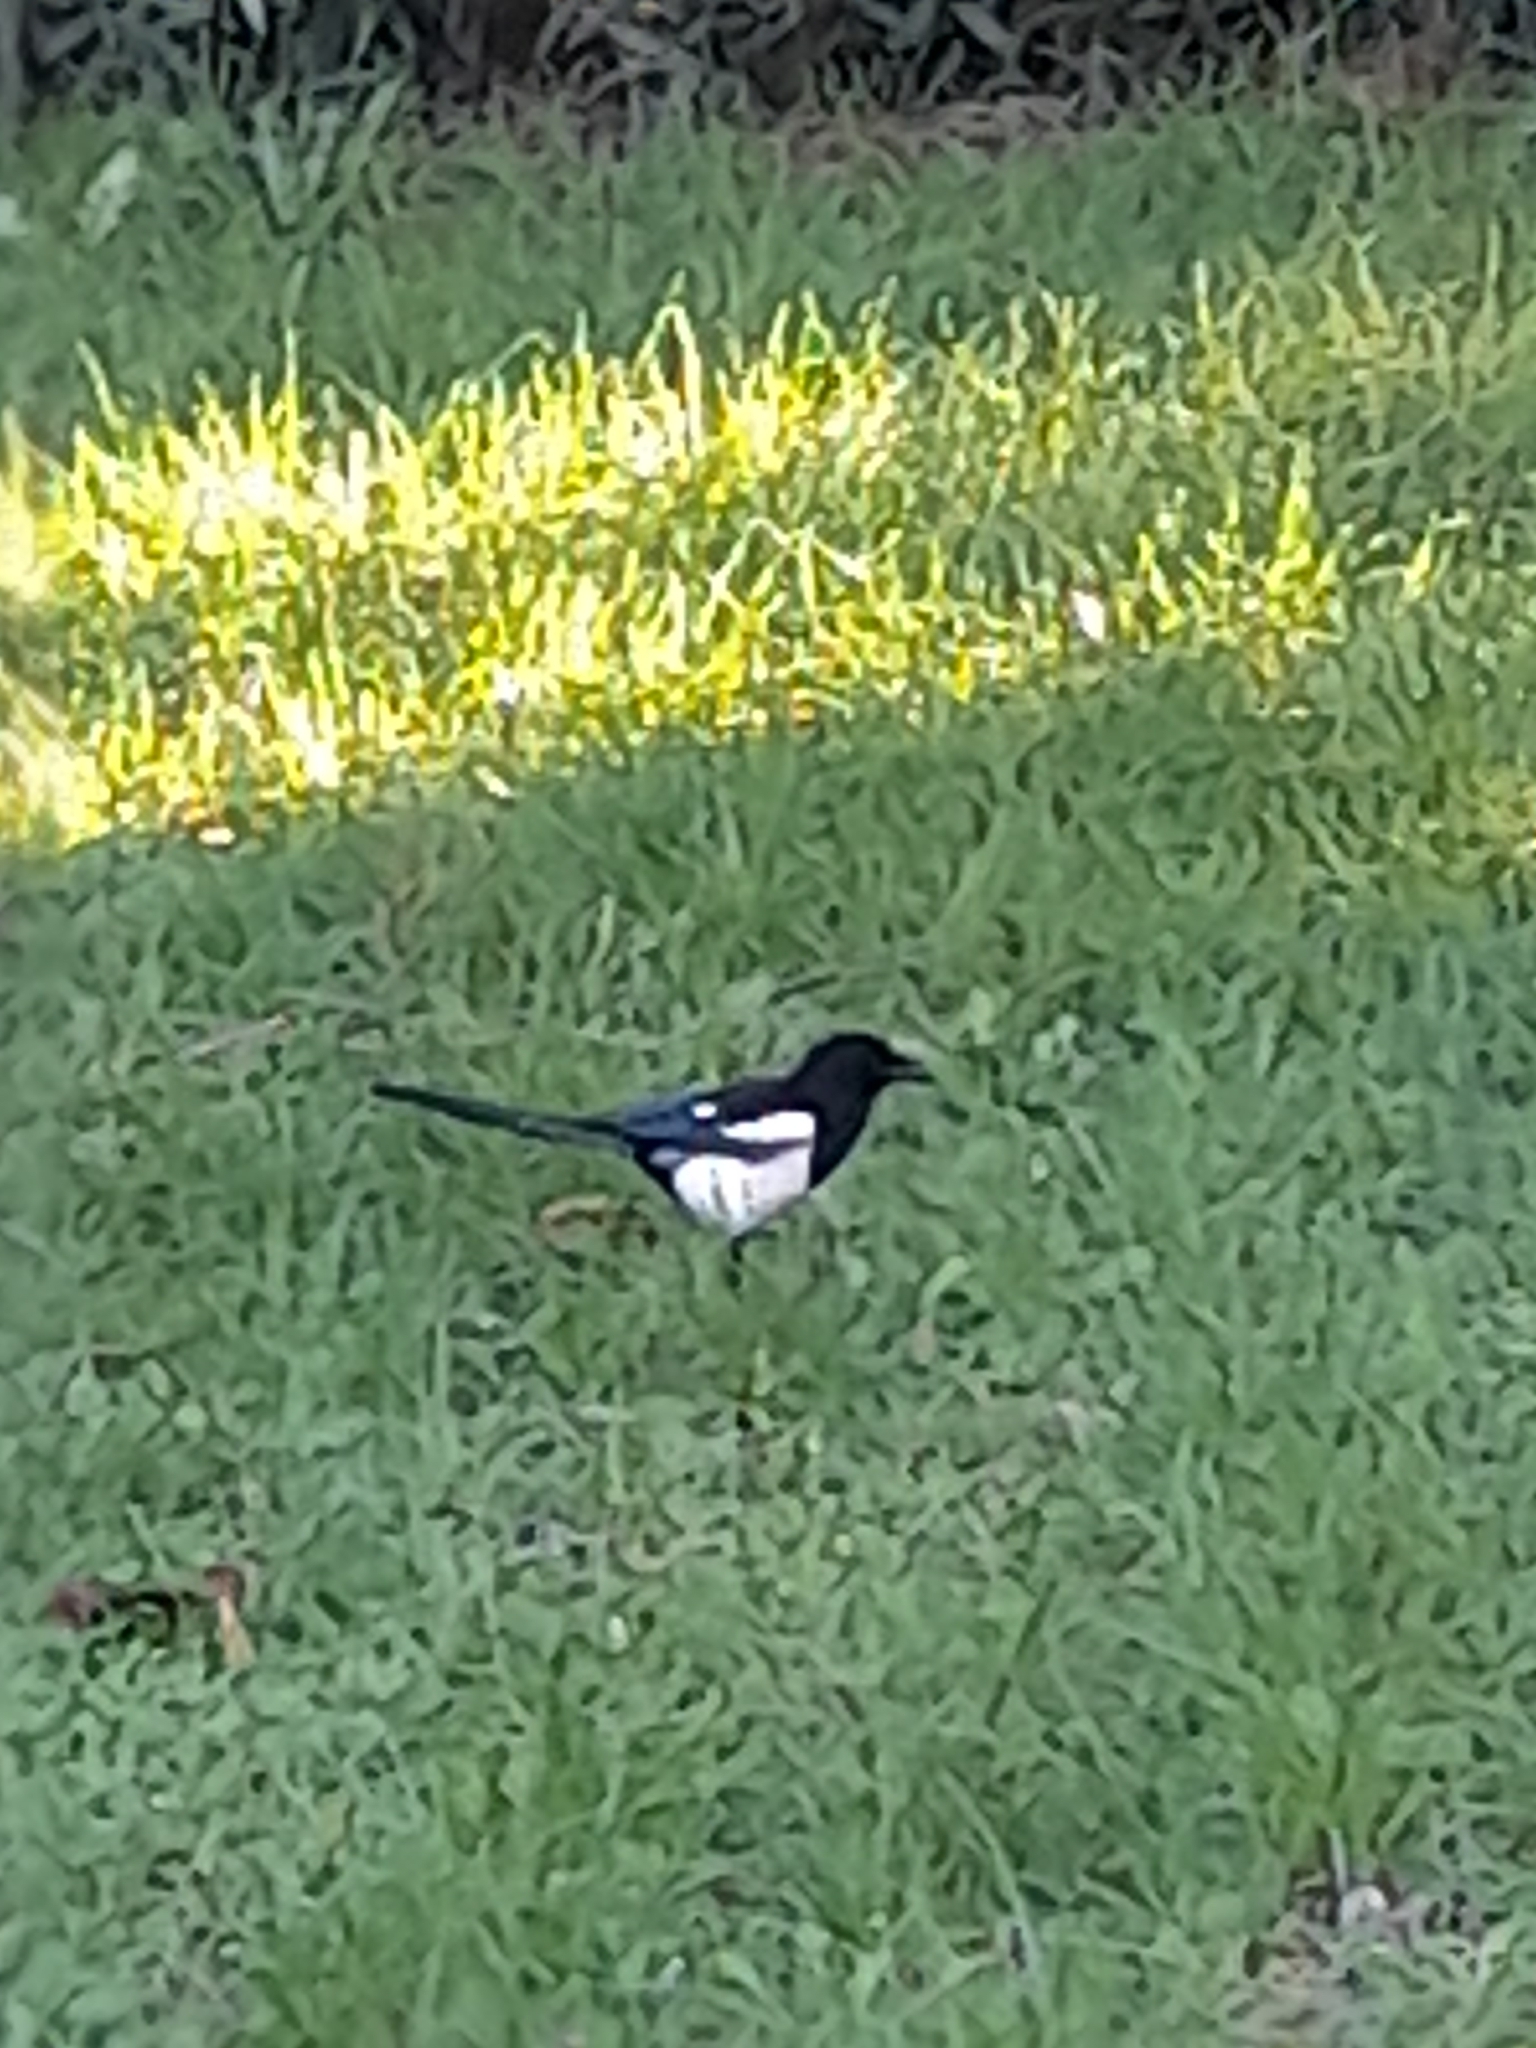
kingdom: Animalia
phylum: Chordata
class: Aves
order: Passeriformes
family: Corvidae
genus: Pica
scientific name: Pica pica
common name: Eurasian magpie
